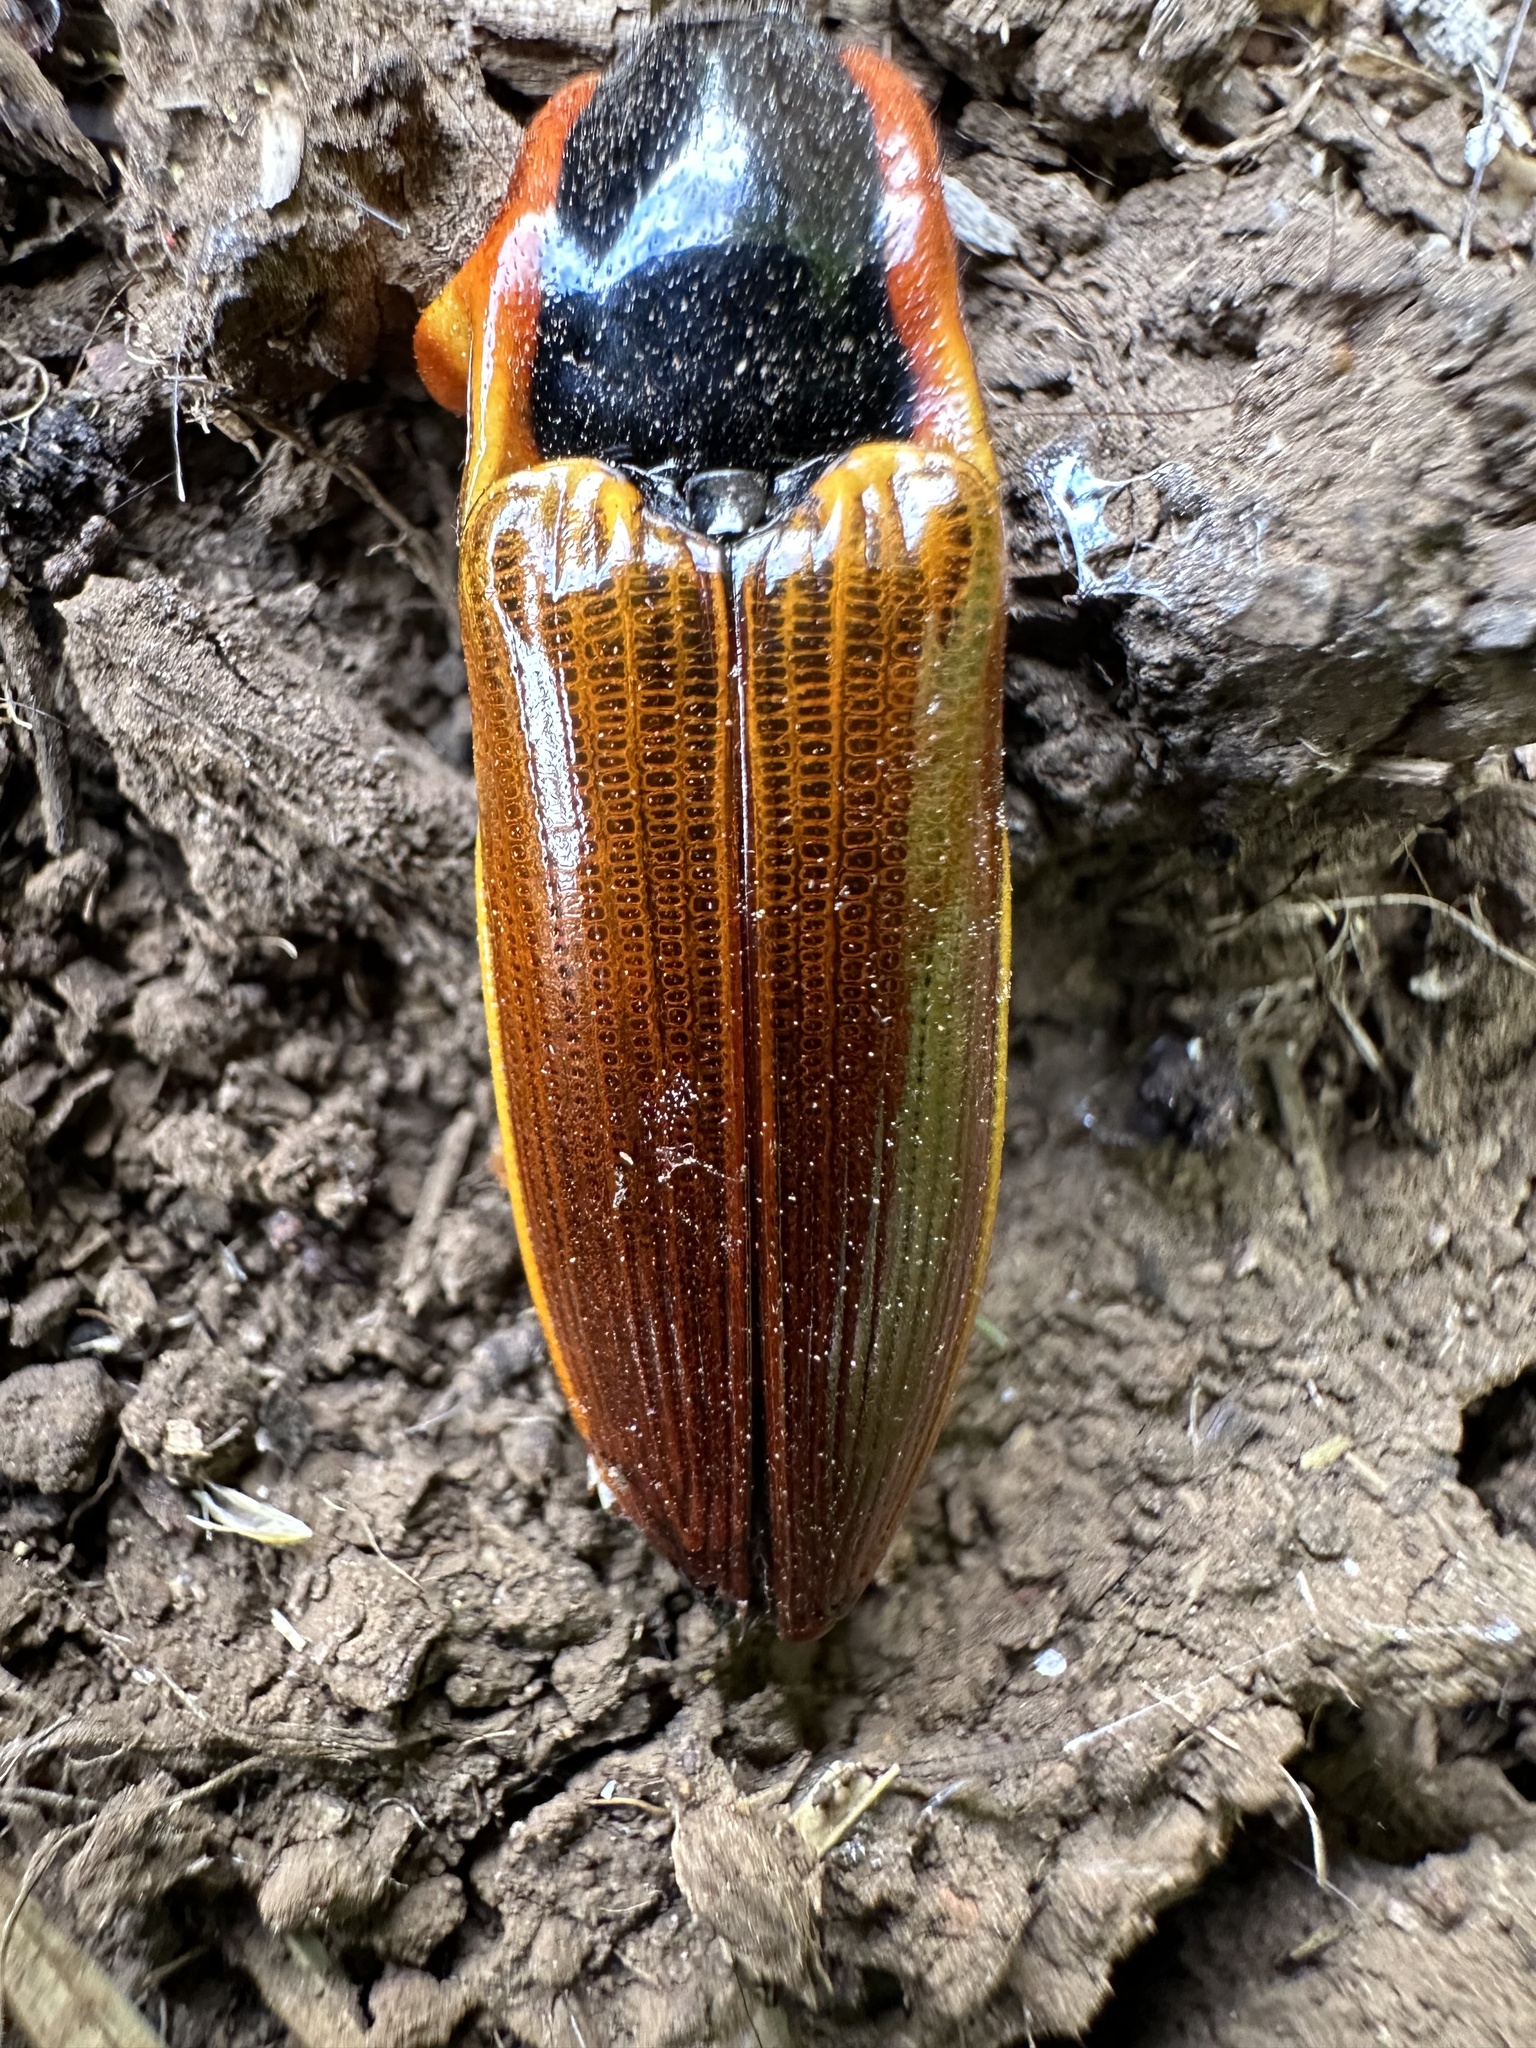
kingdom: Animalia
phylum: Arthropoda
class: Insecta
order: Coleoptera
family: Elateridae
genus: Semiotus
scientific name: Semiotus
